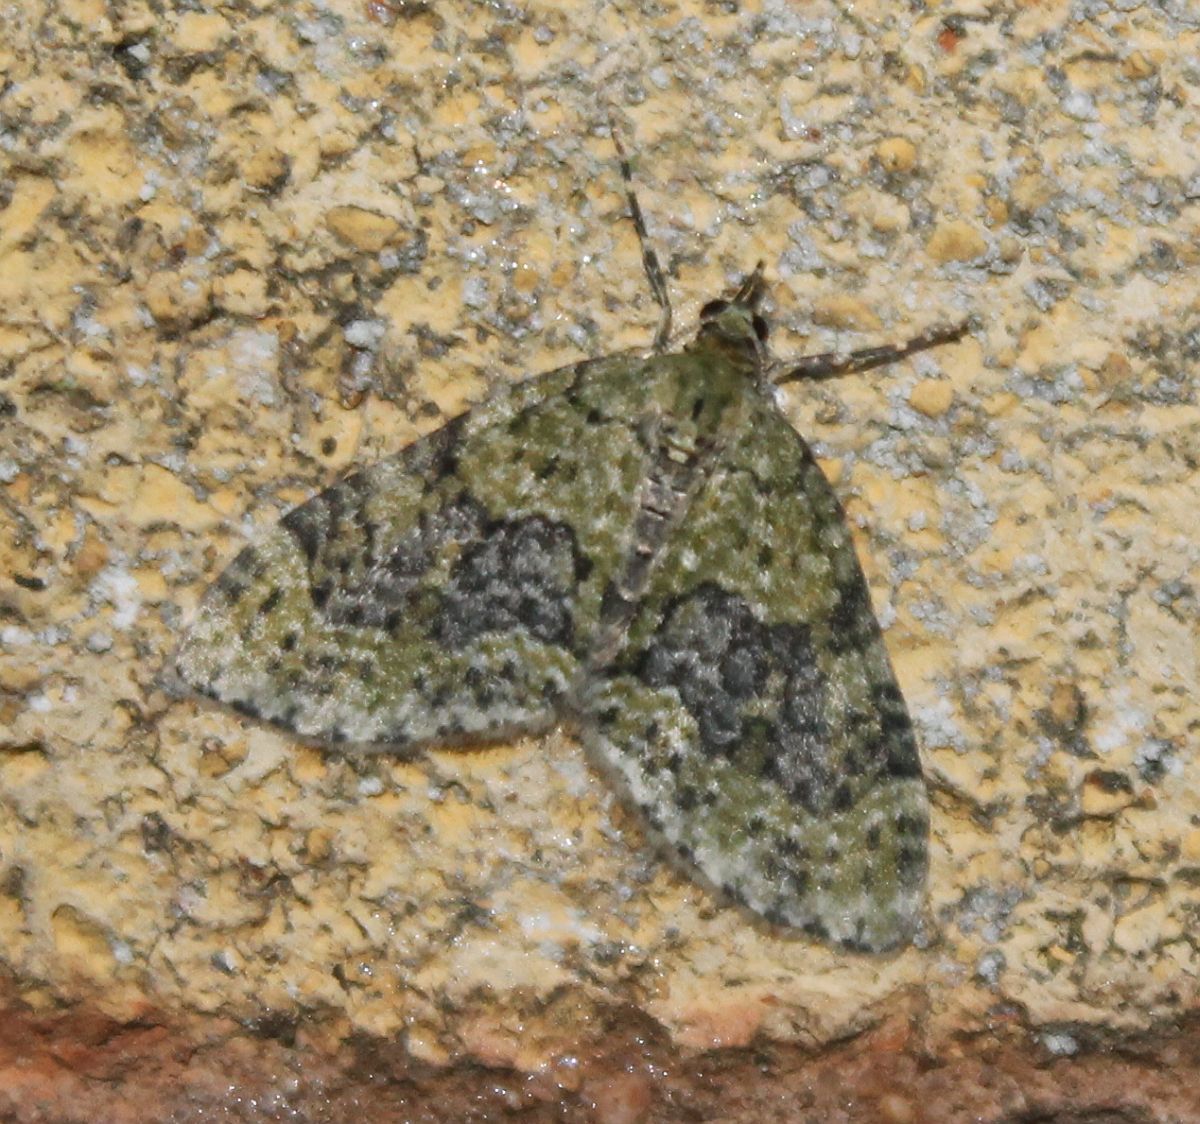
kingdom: Animalia
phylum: Arthropoda
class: Insecta
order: Lepidoptera
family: Geometridae
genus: Acasis
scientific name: Acasis viretata
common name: Yellow-barred brindle
